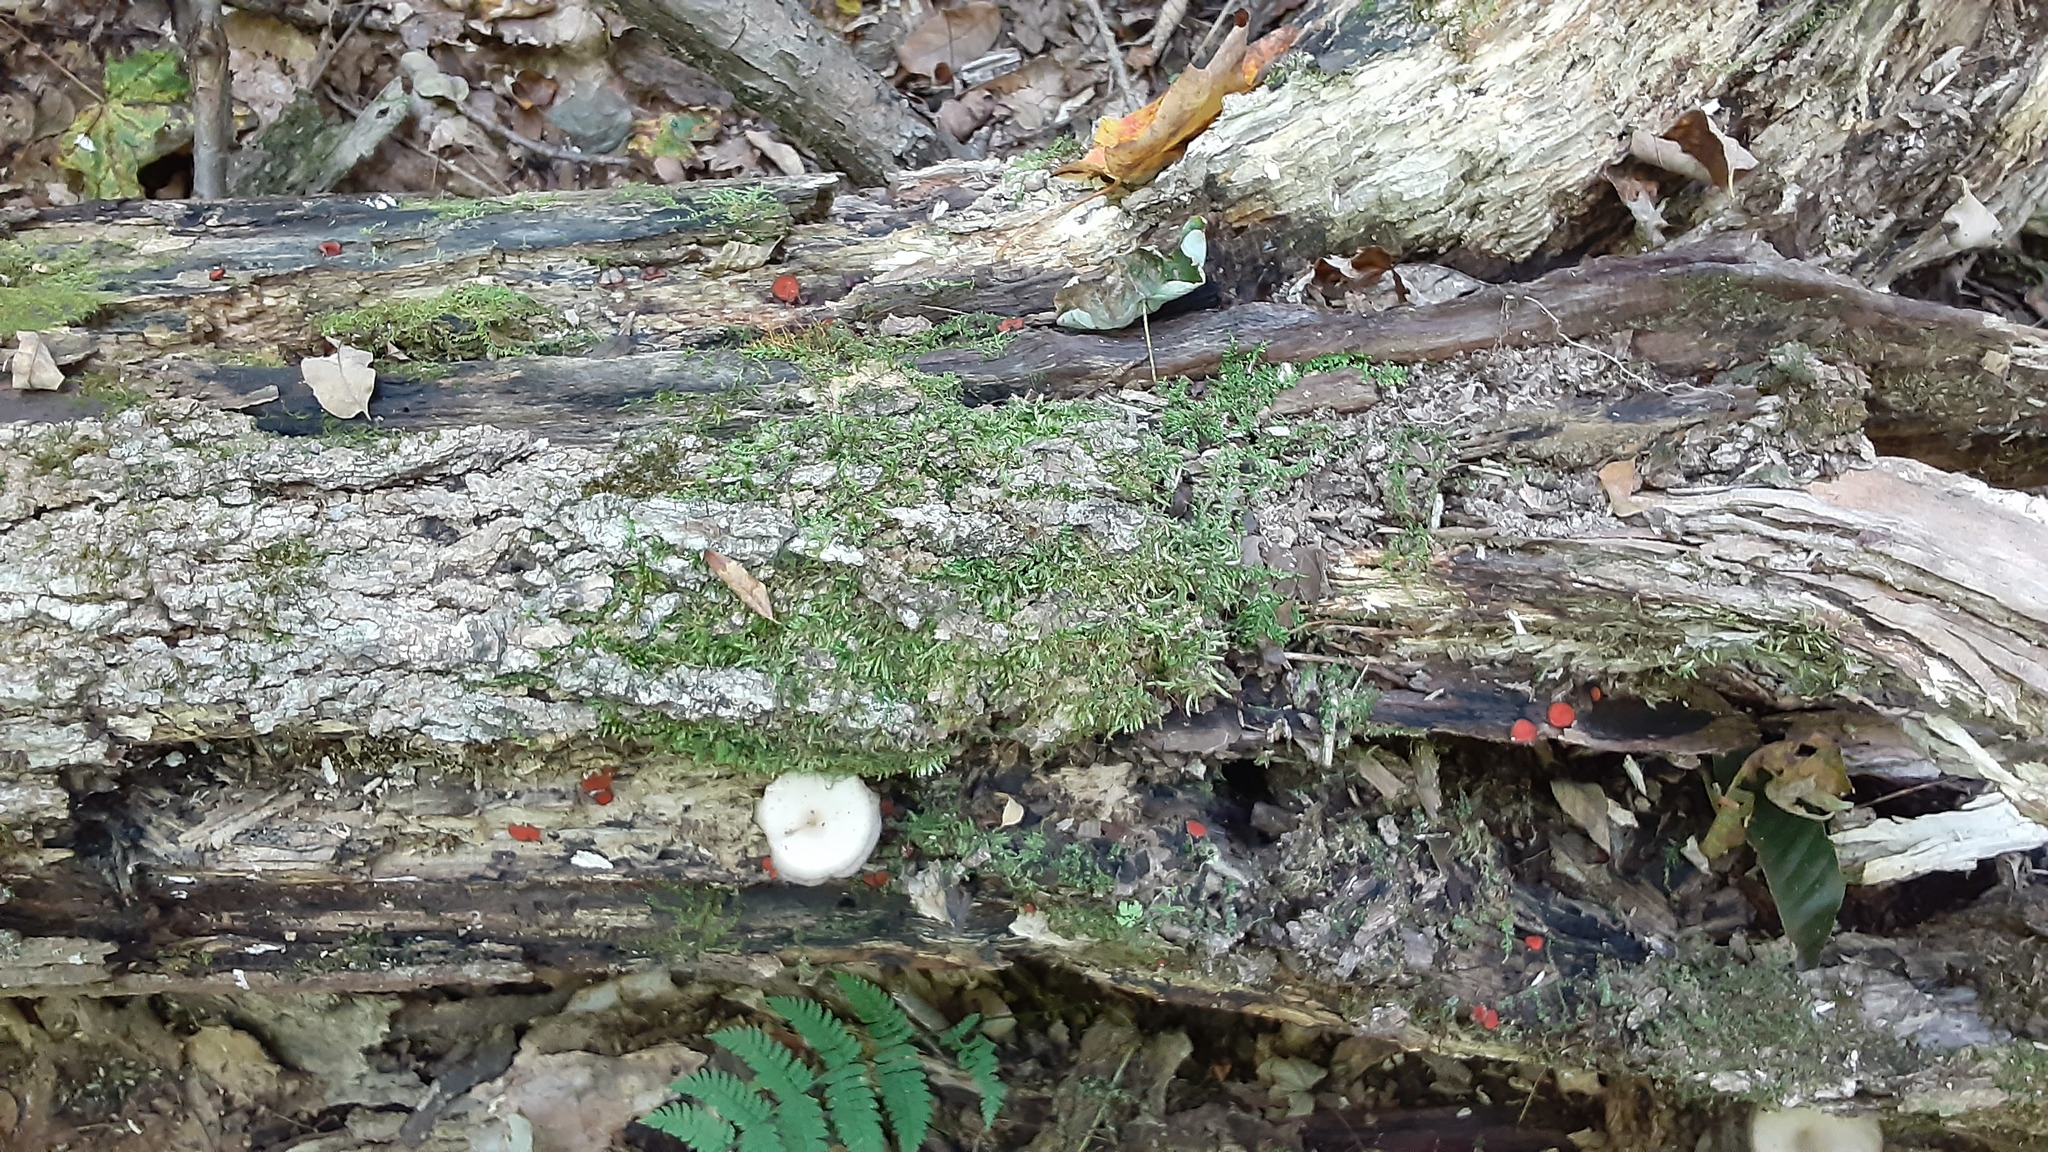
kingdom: Fungi
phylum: Ascomycota
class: Pezizomycetes
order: Pezizales
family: Pyronemataceae
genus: Scutellinia
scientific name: Scutellinia
